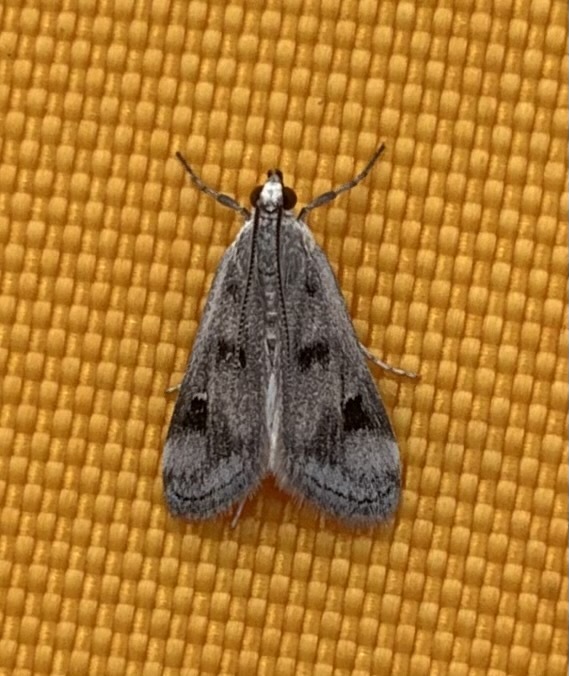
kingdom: Animalia
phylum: Arthropoda
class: Insecta
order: Lepidoptera
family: Crambidae
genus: Parapoynx
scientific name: Parapoynx maculalis
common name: Polymorphic pondweed moth
